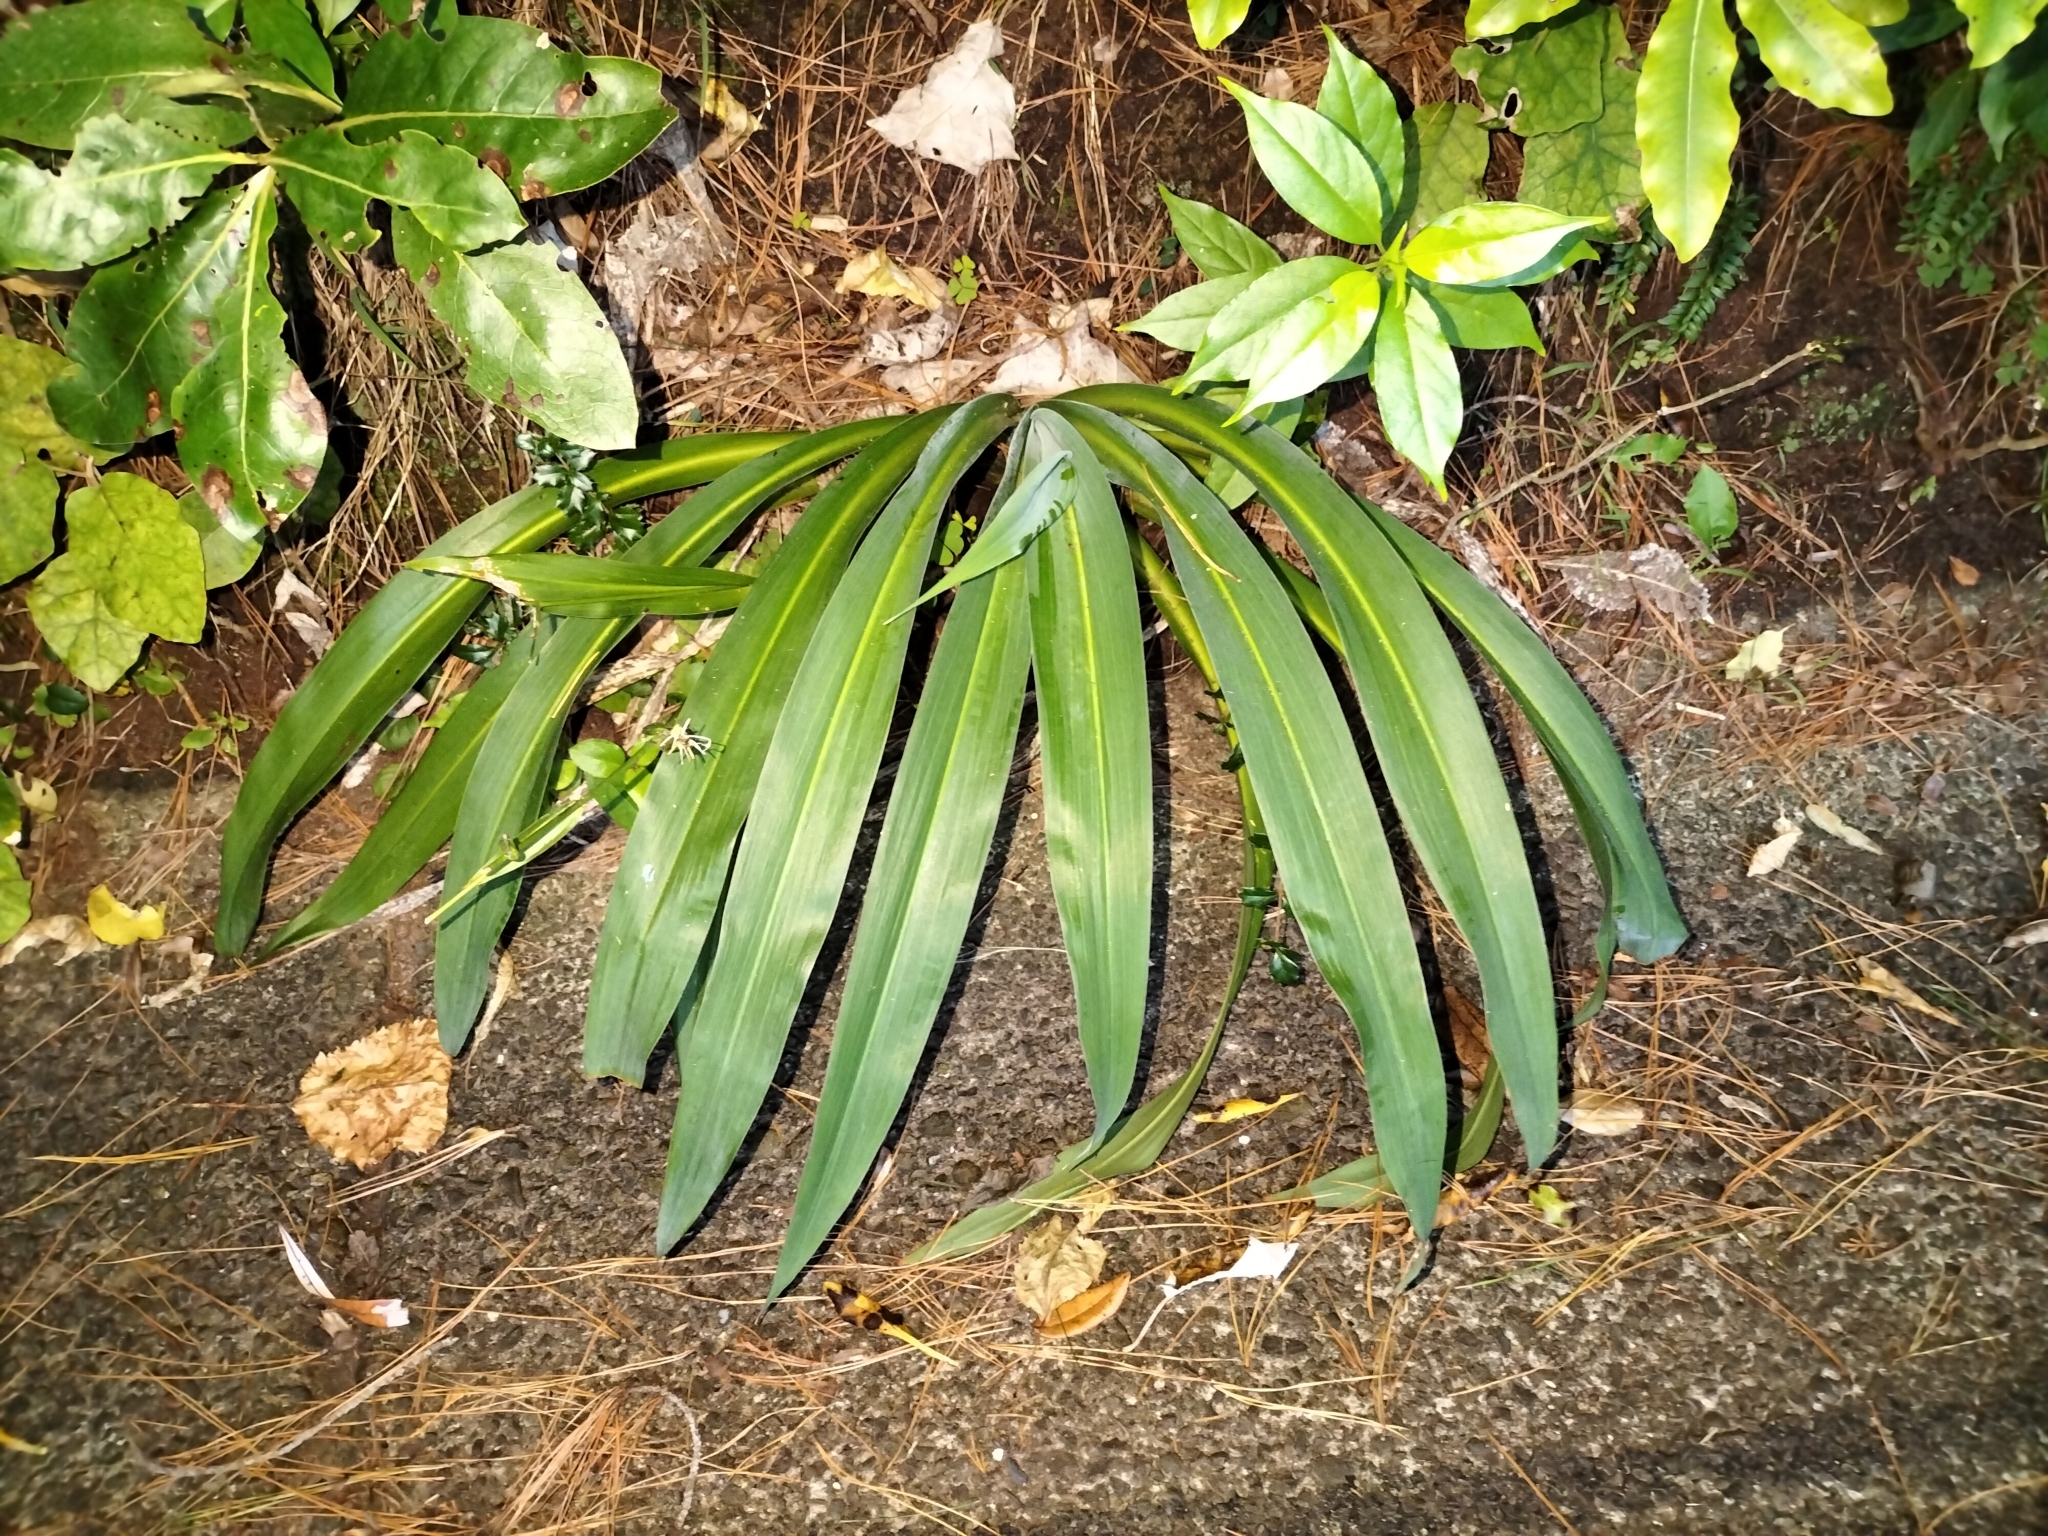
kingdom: Plantae
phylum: Tracheophyta
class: Liliopsida
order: Asparagales
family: Asparagaceae
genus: Arthropodium
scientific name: Arthropodium cirratum
